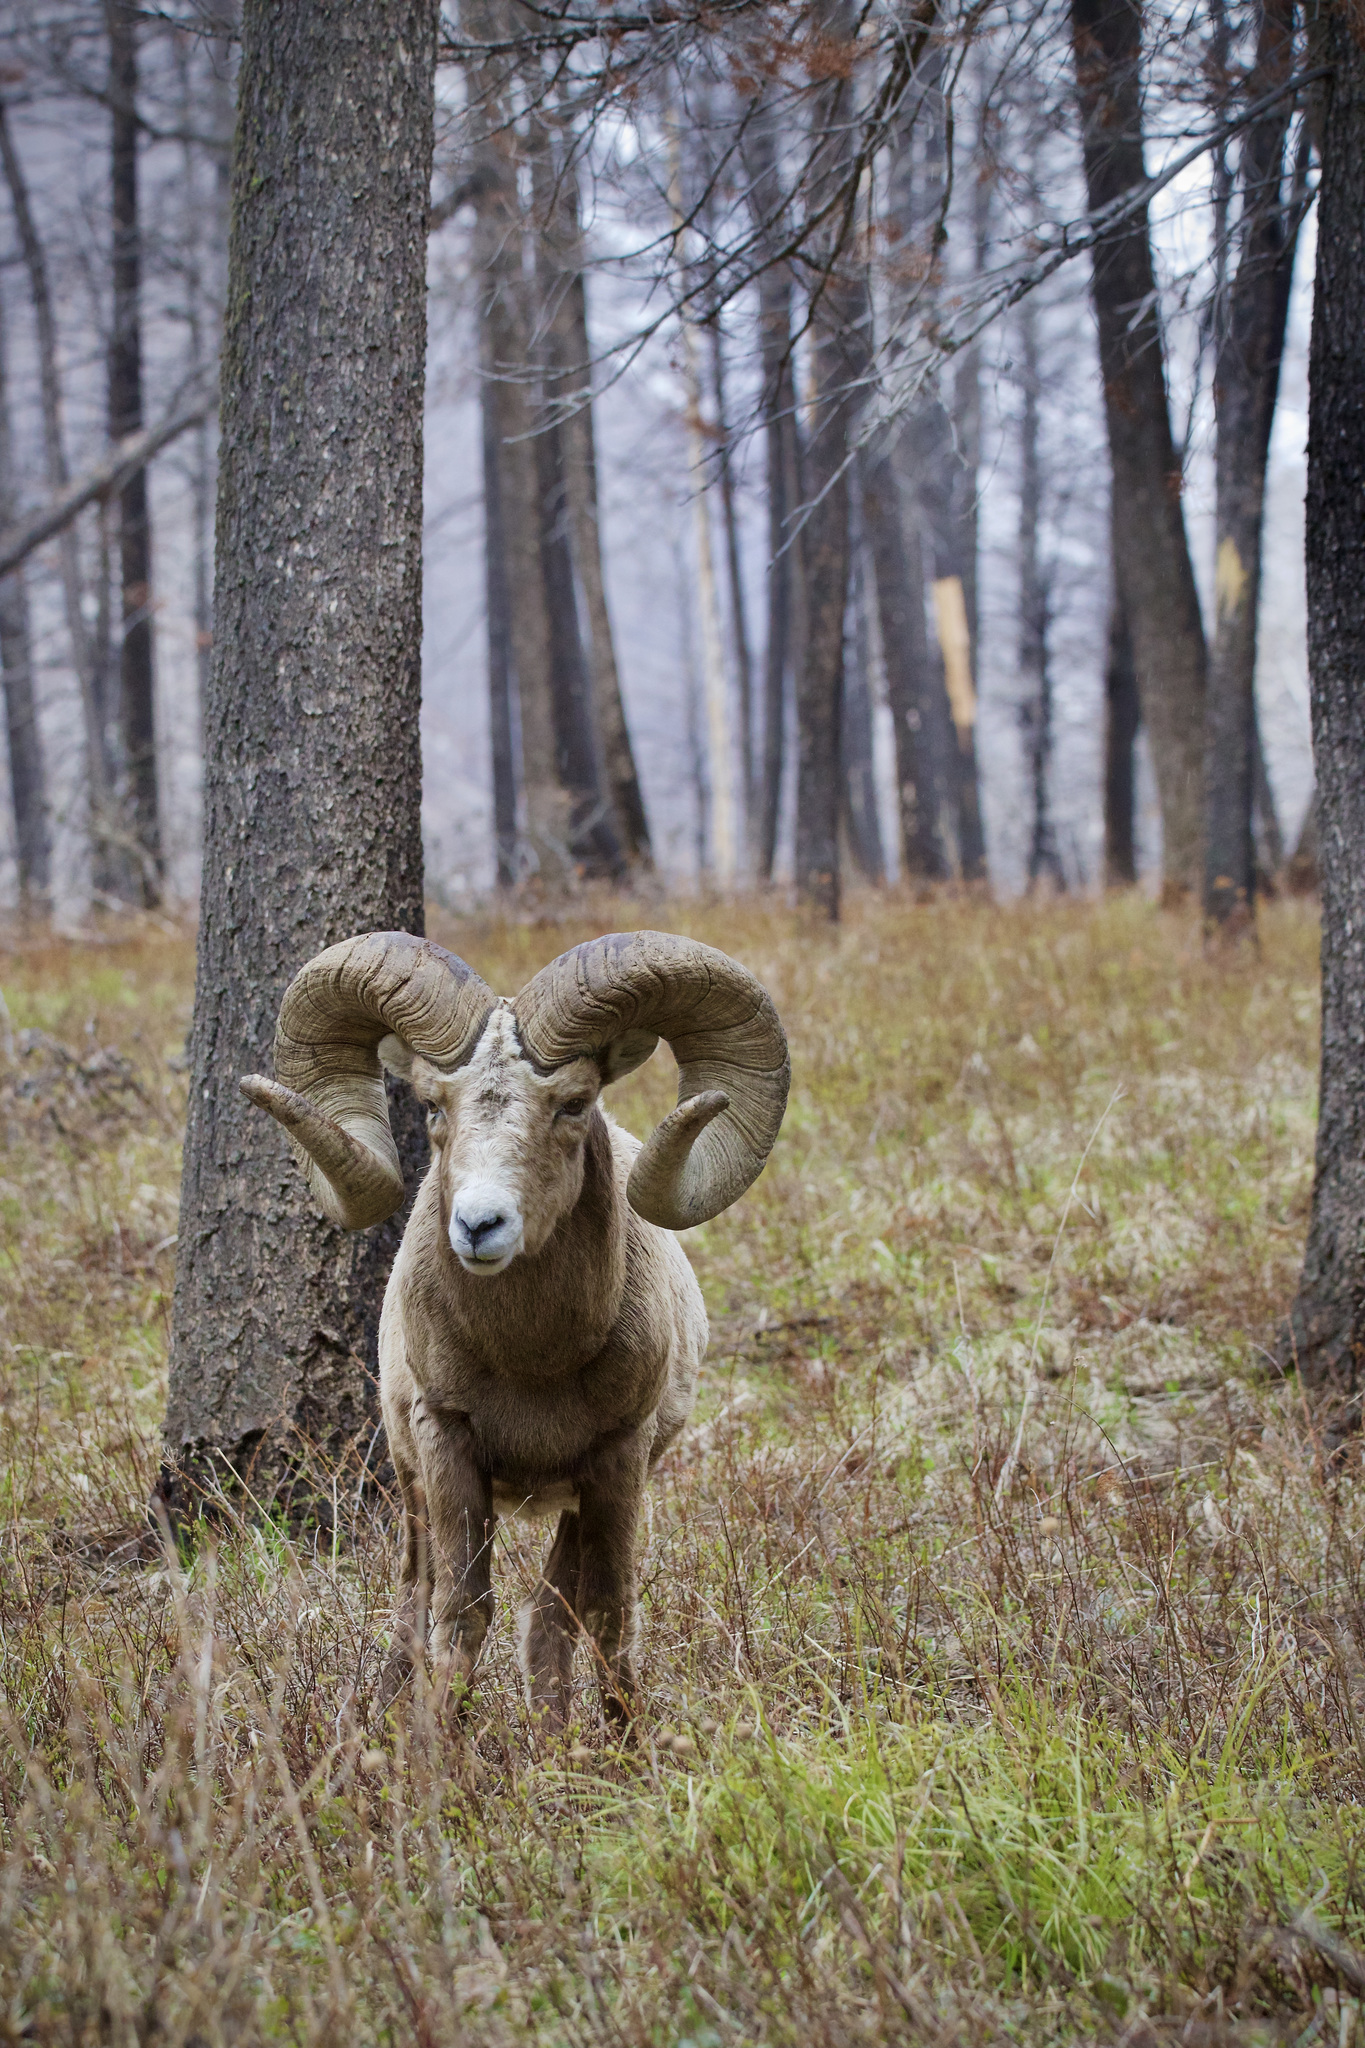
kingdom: Animalia
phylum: Chordata
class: Mammalia
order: Artiodactyla
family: Bovidae
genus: Ovis
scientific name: Ovis canadensis
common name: Bighorn sheep
